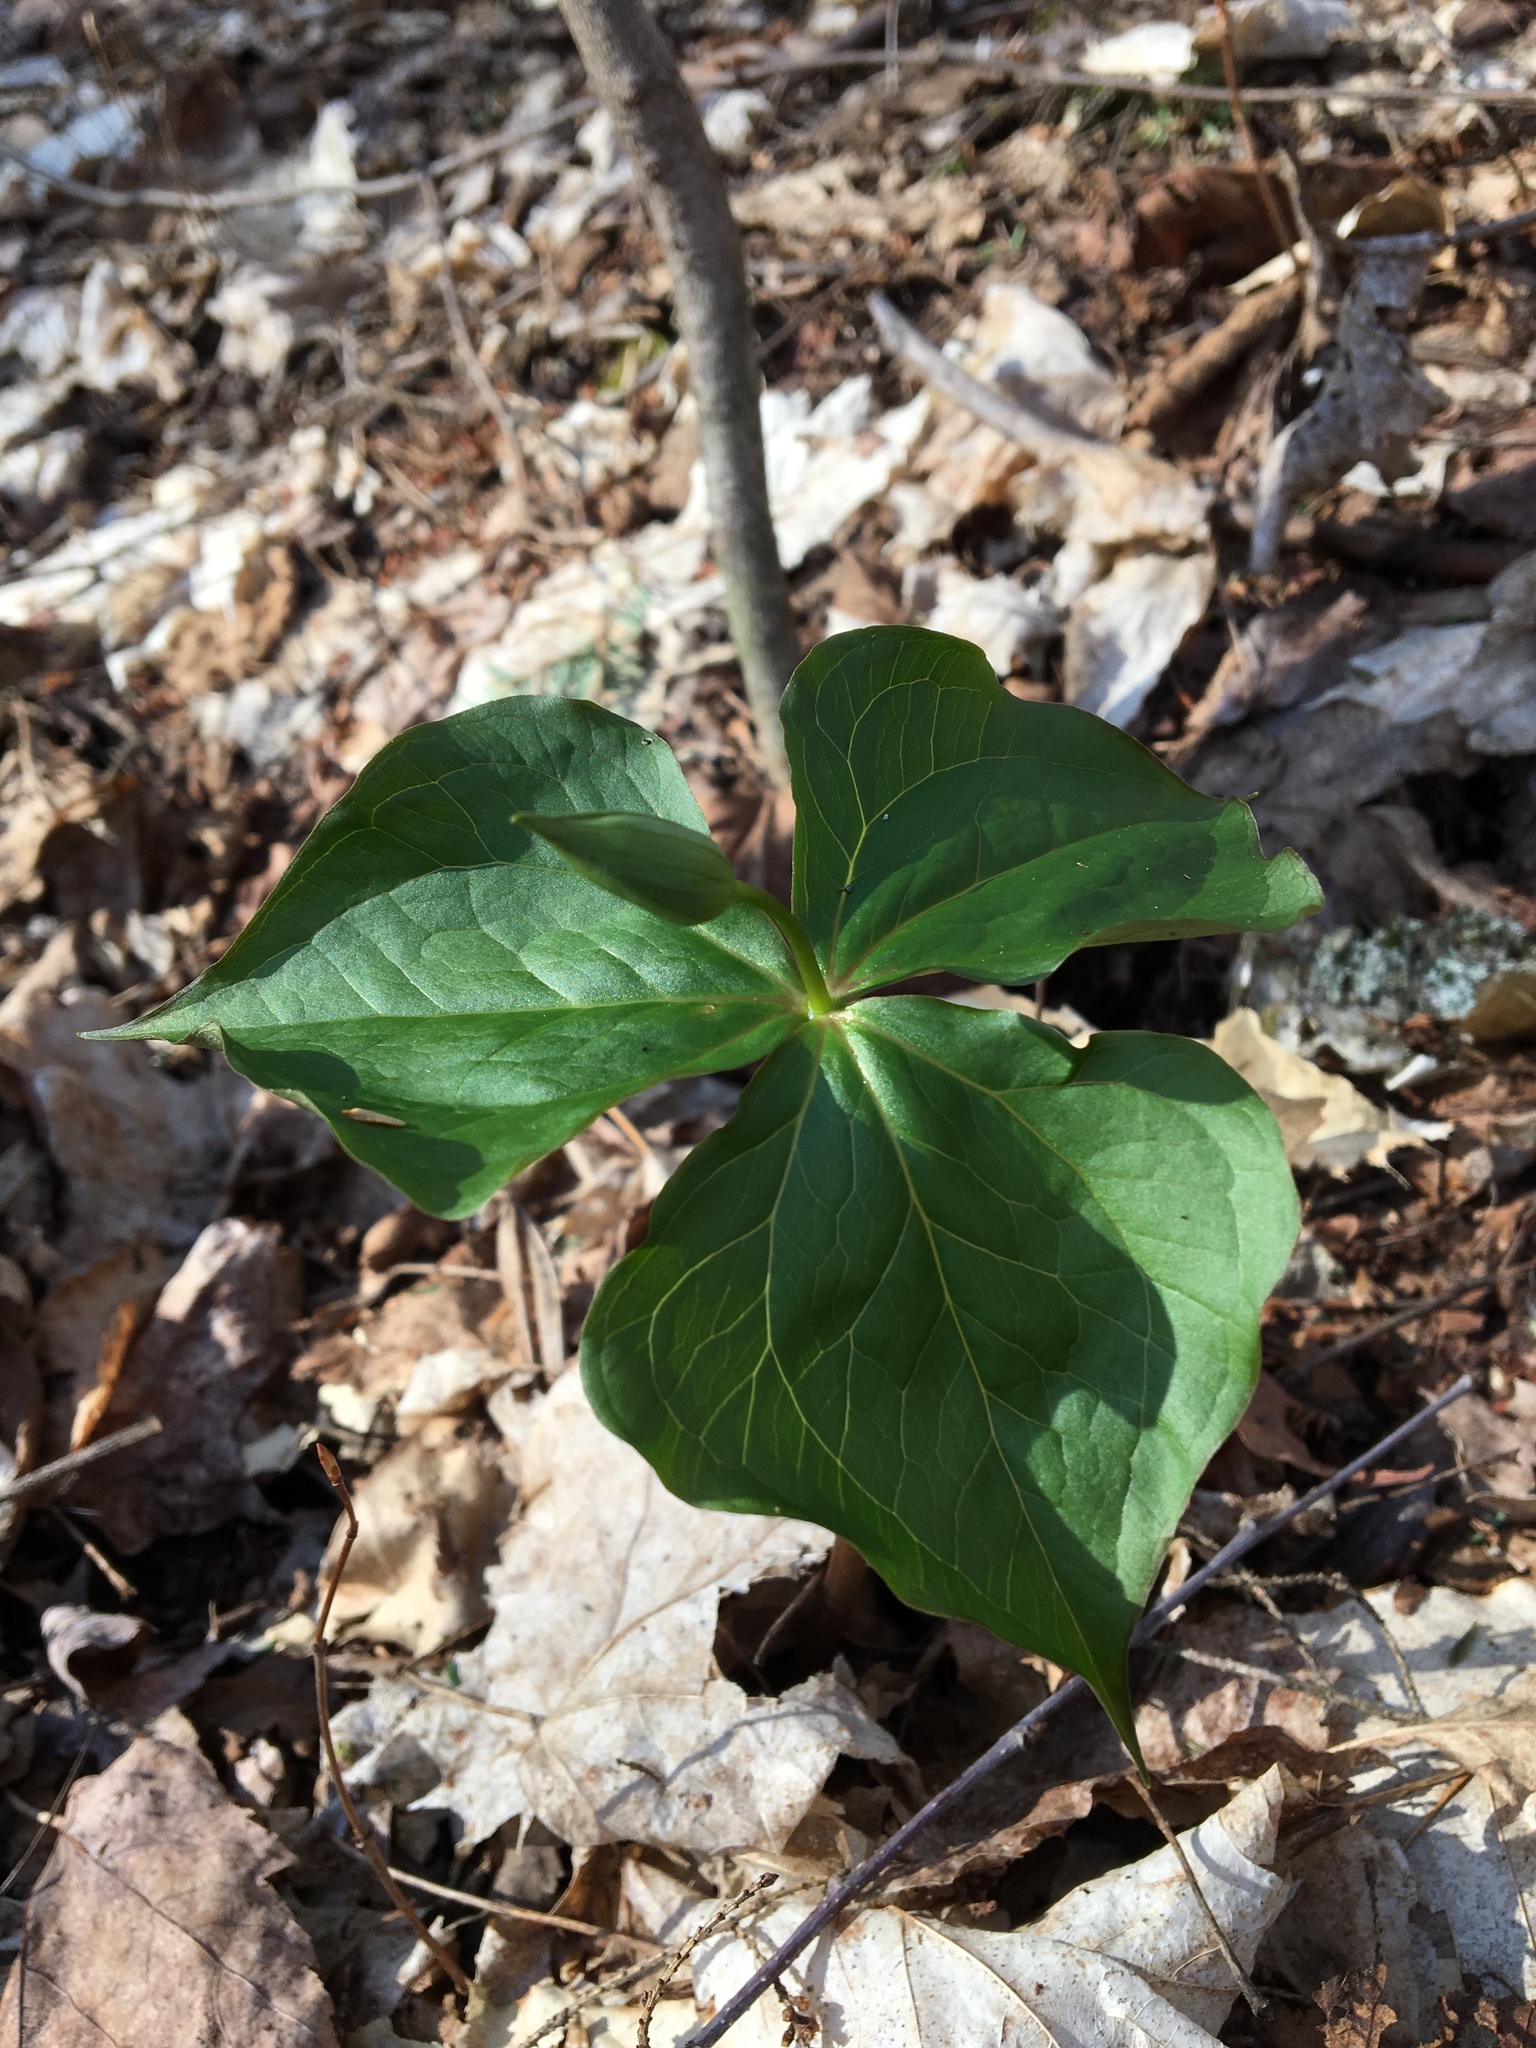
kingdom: Plantae
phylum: Tracheophyta
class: Liliopsida
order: Liliales
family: Melanthiaceae
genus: Trillium
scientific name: Trillium erectum
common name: Purple trillium
